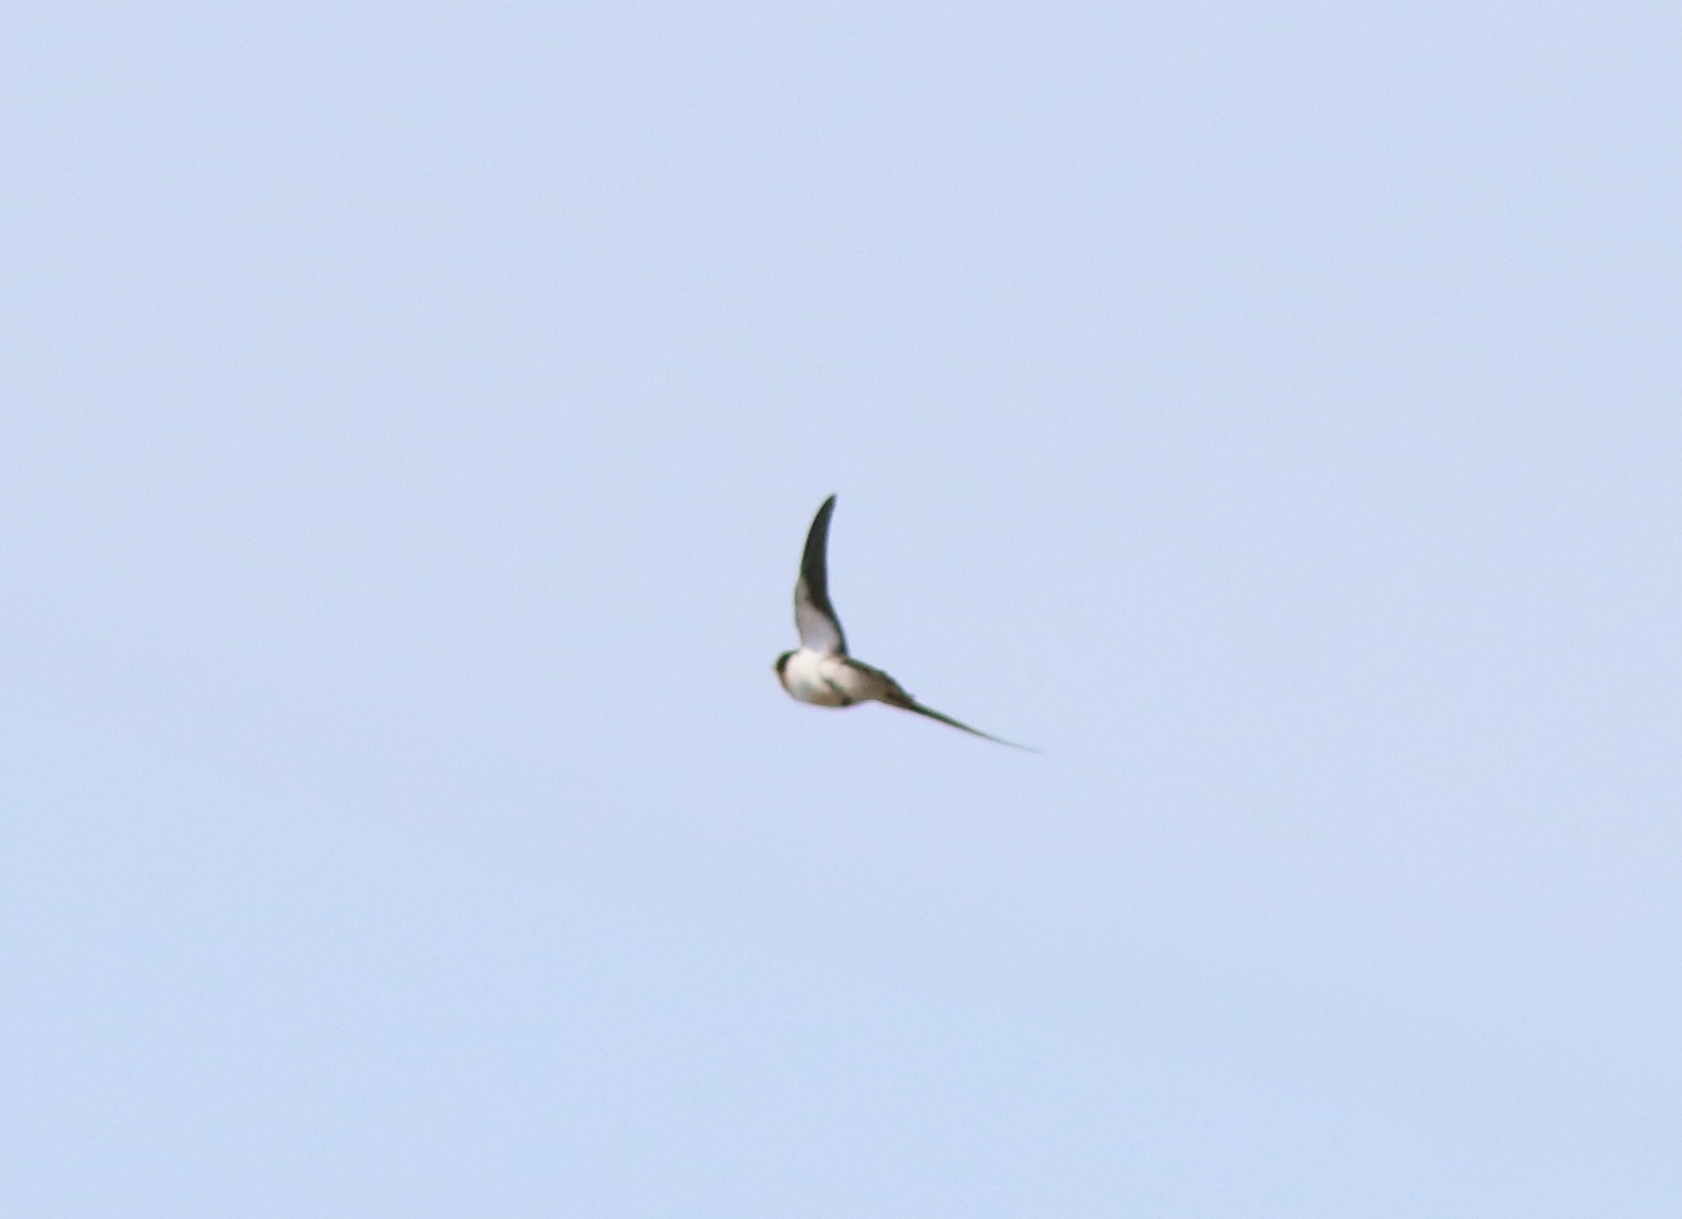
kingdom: Animalia
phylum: Chordata
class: Aves
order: Passeriformes
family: Hirundinidae
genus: Hirundo
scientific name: Hirundo smithii
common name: Wire-tailed swallow
